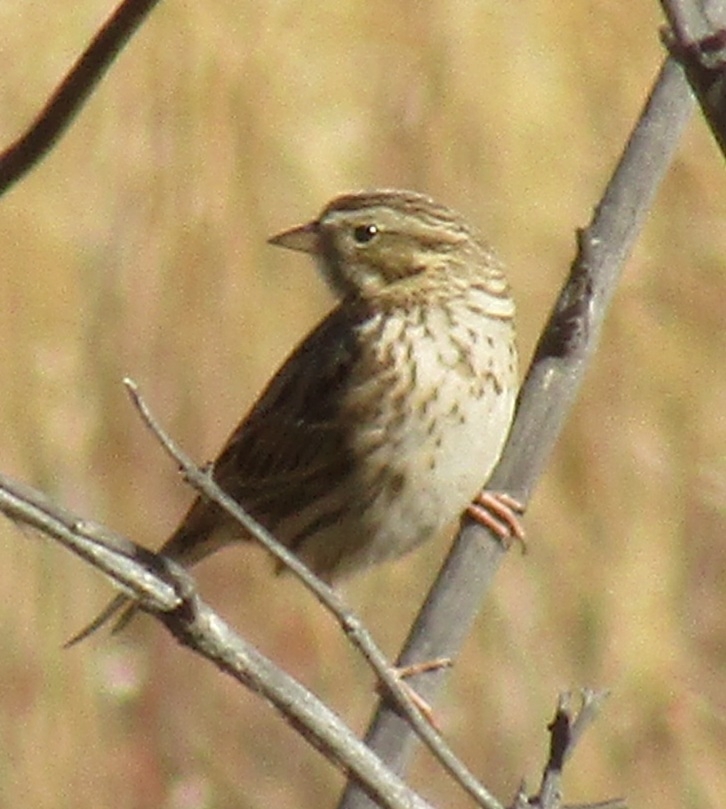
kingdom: Animalia
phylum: Chordata
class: Aves
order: Passeriformes
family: Passerellidae
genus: Passerculus
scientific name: Passerculus sandwichensis
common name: Savannah sparrow
